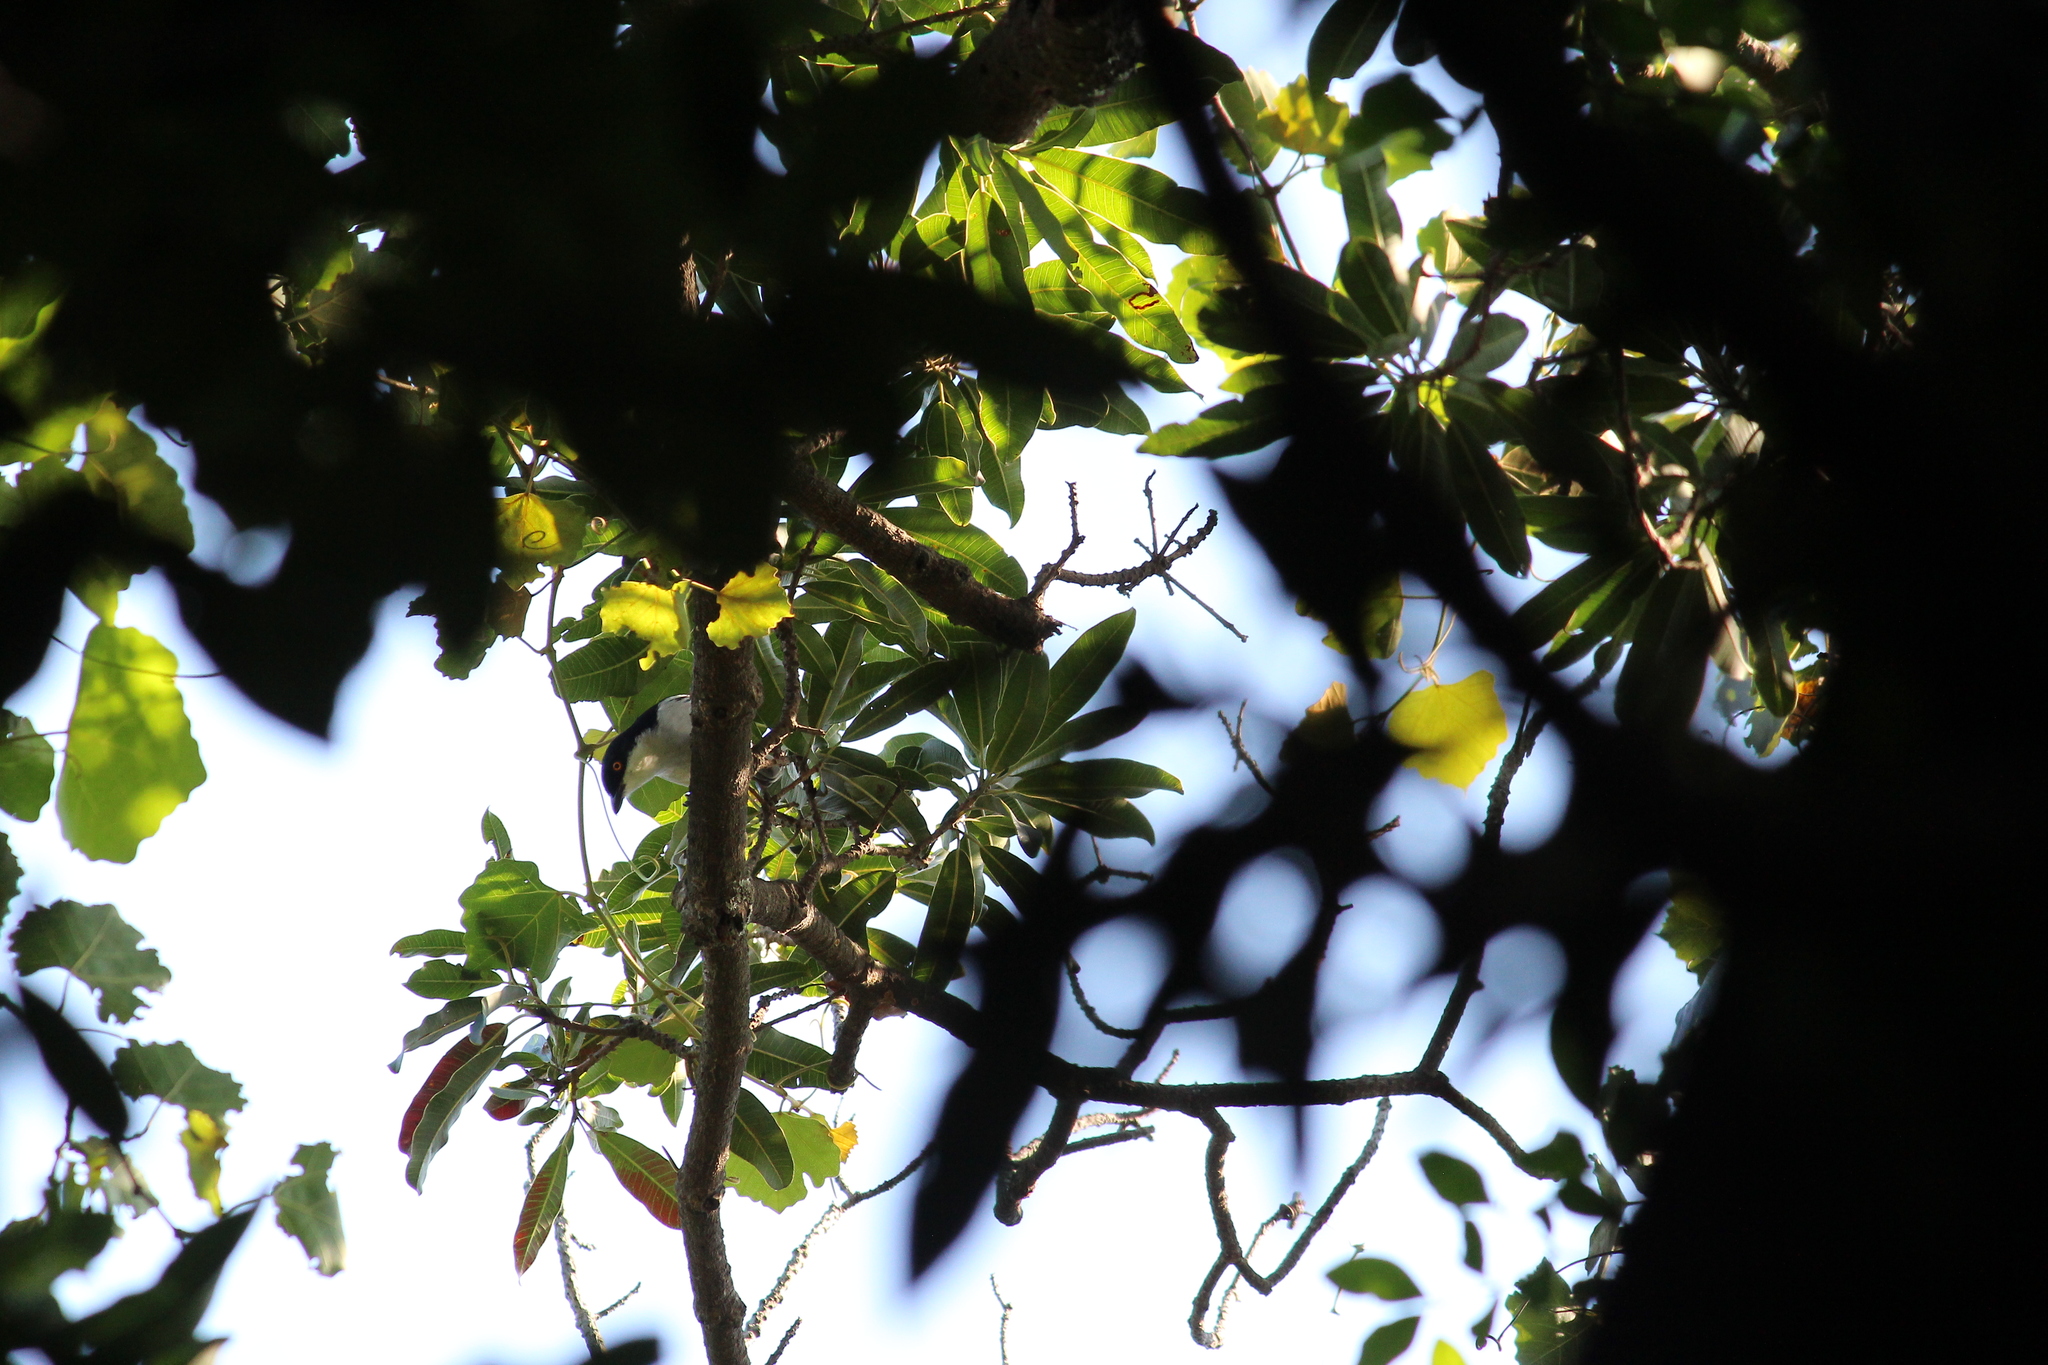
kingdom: Animalia
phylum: Chordata
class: Aves
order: Passeriformes
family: Malaconotidae
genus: Dryoscopus
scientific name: Dryoscopus cubla
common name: Black-backed puffback
